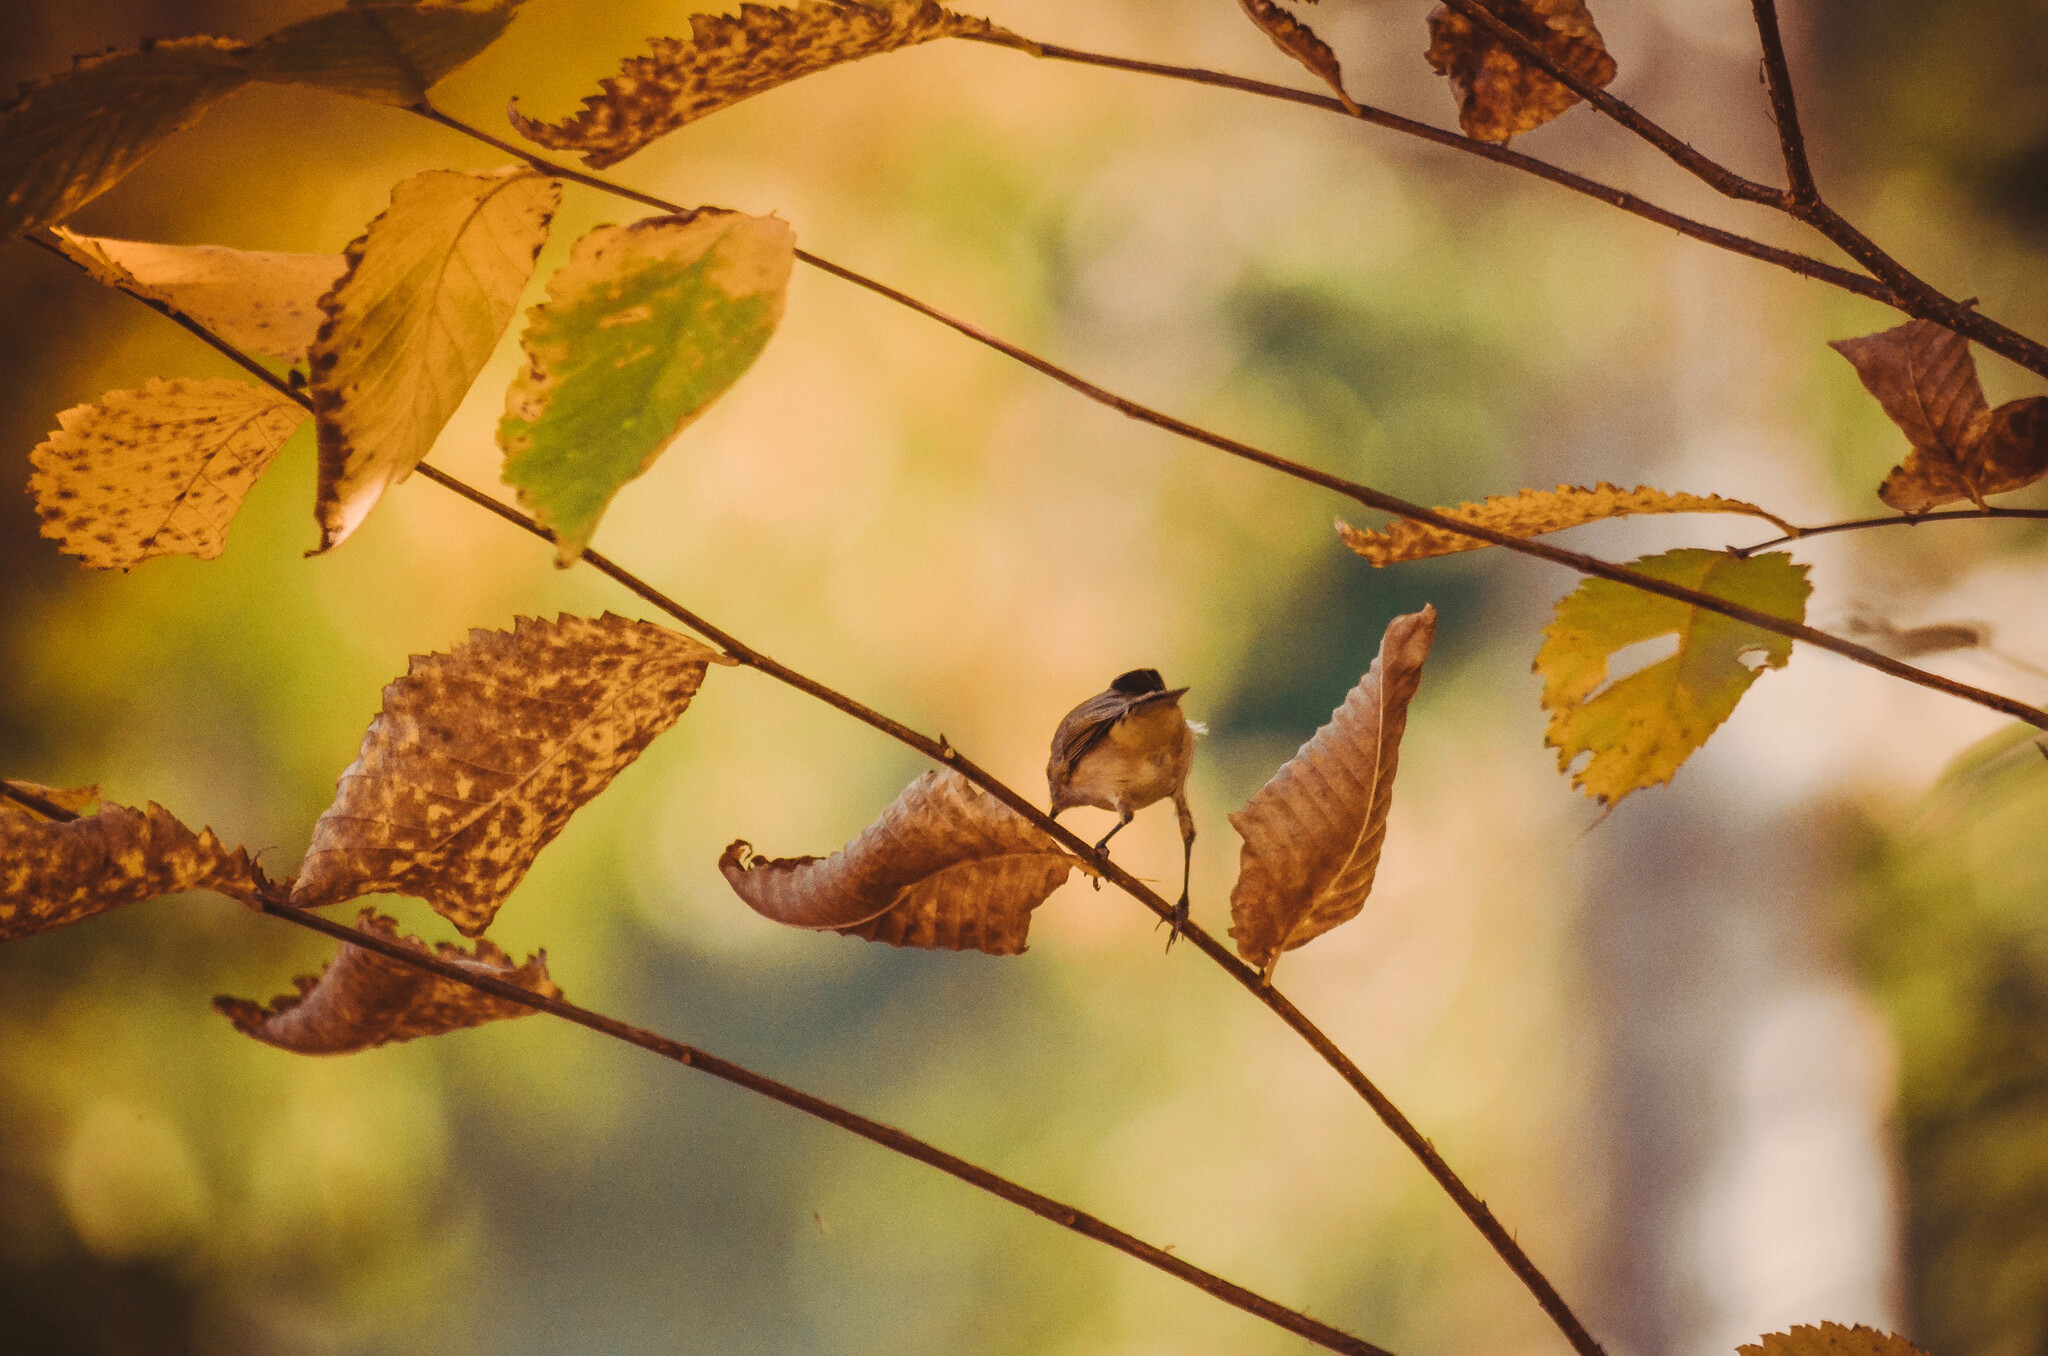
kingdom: Animalia
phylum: Chordata
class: Aves
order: Passeriformes
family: Phylloscopidae
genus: Phylloscopus
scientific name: Phylloscopus collybita
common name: Common chiffchaff
